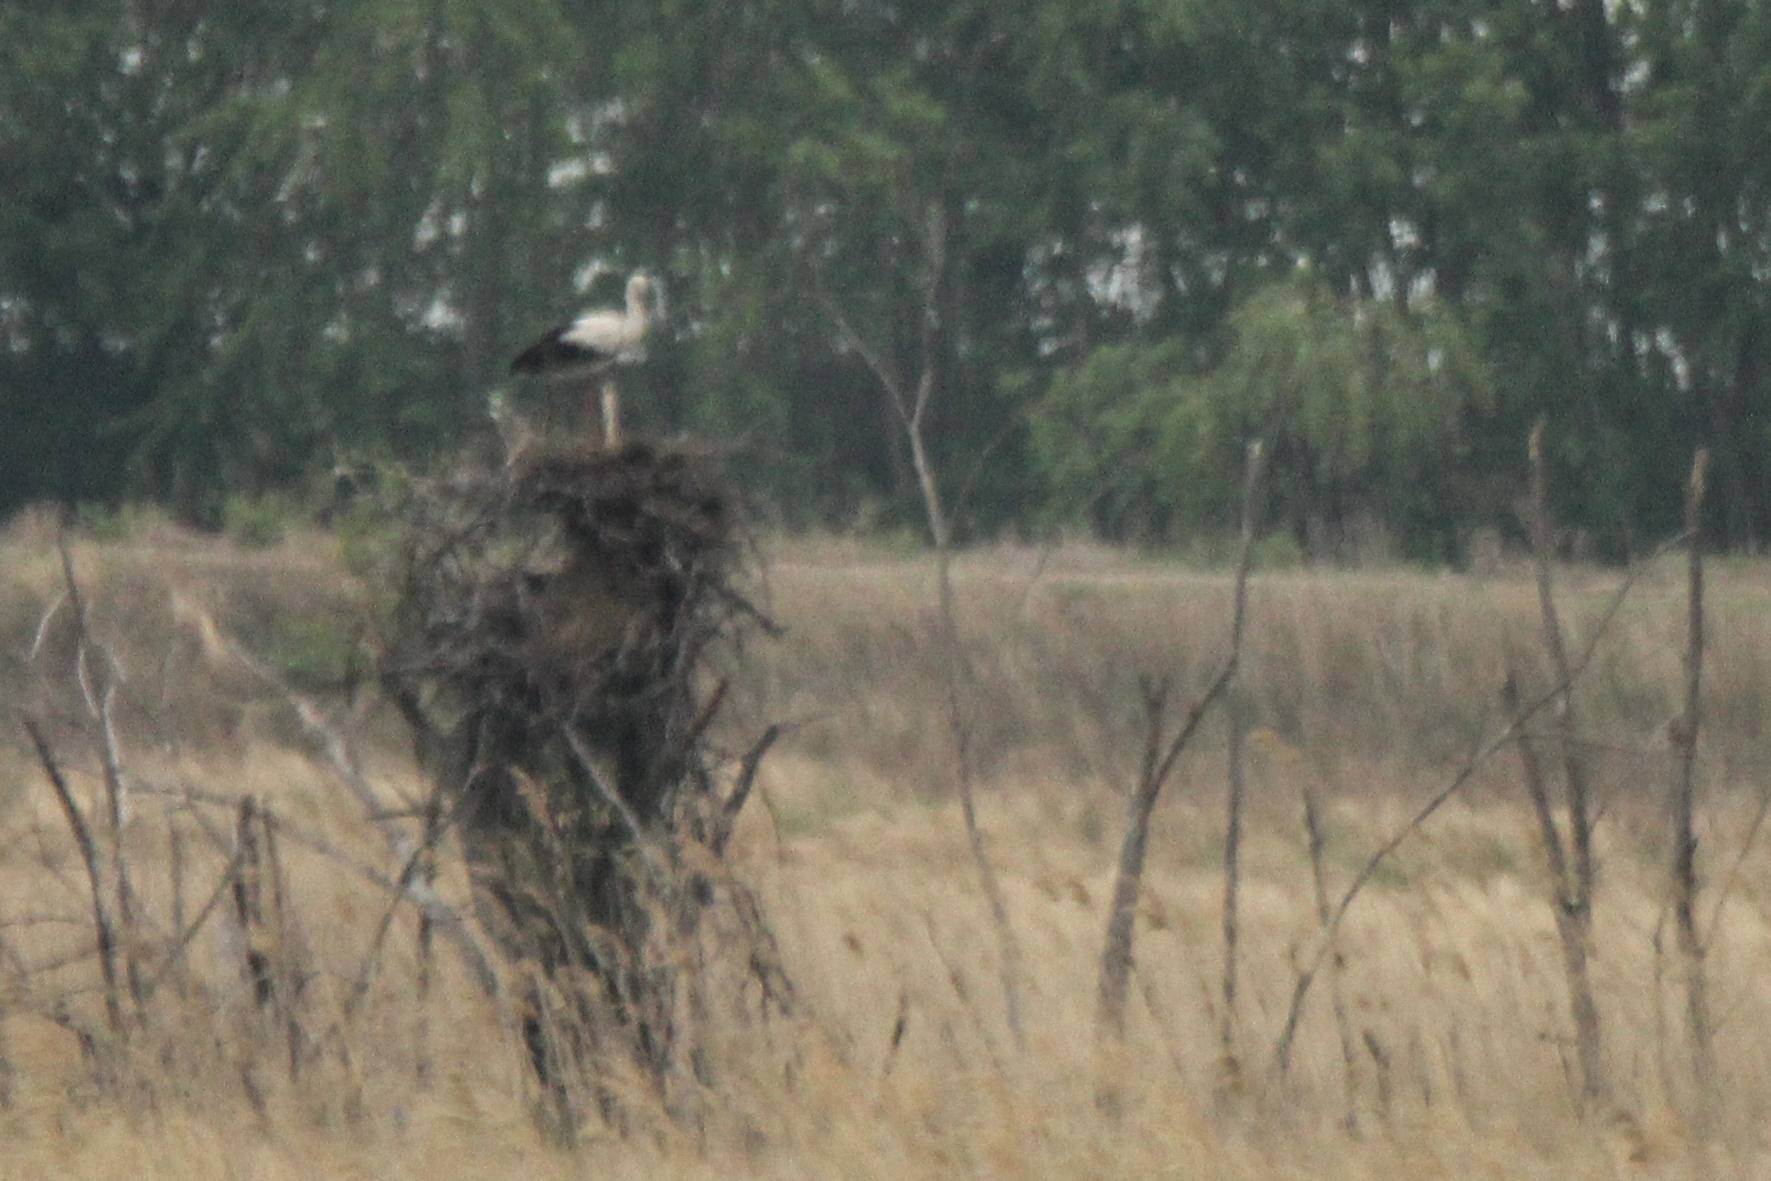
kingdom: Animalia
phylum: Chordata
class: Aves
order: Ciconiiformes
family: Ciconiidae
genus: Ciconia
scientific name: Ciconia boyciana
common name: Oriental stork
